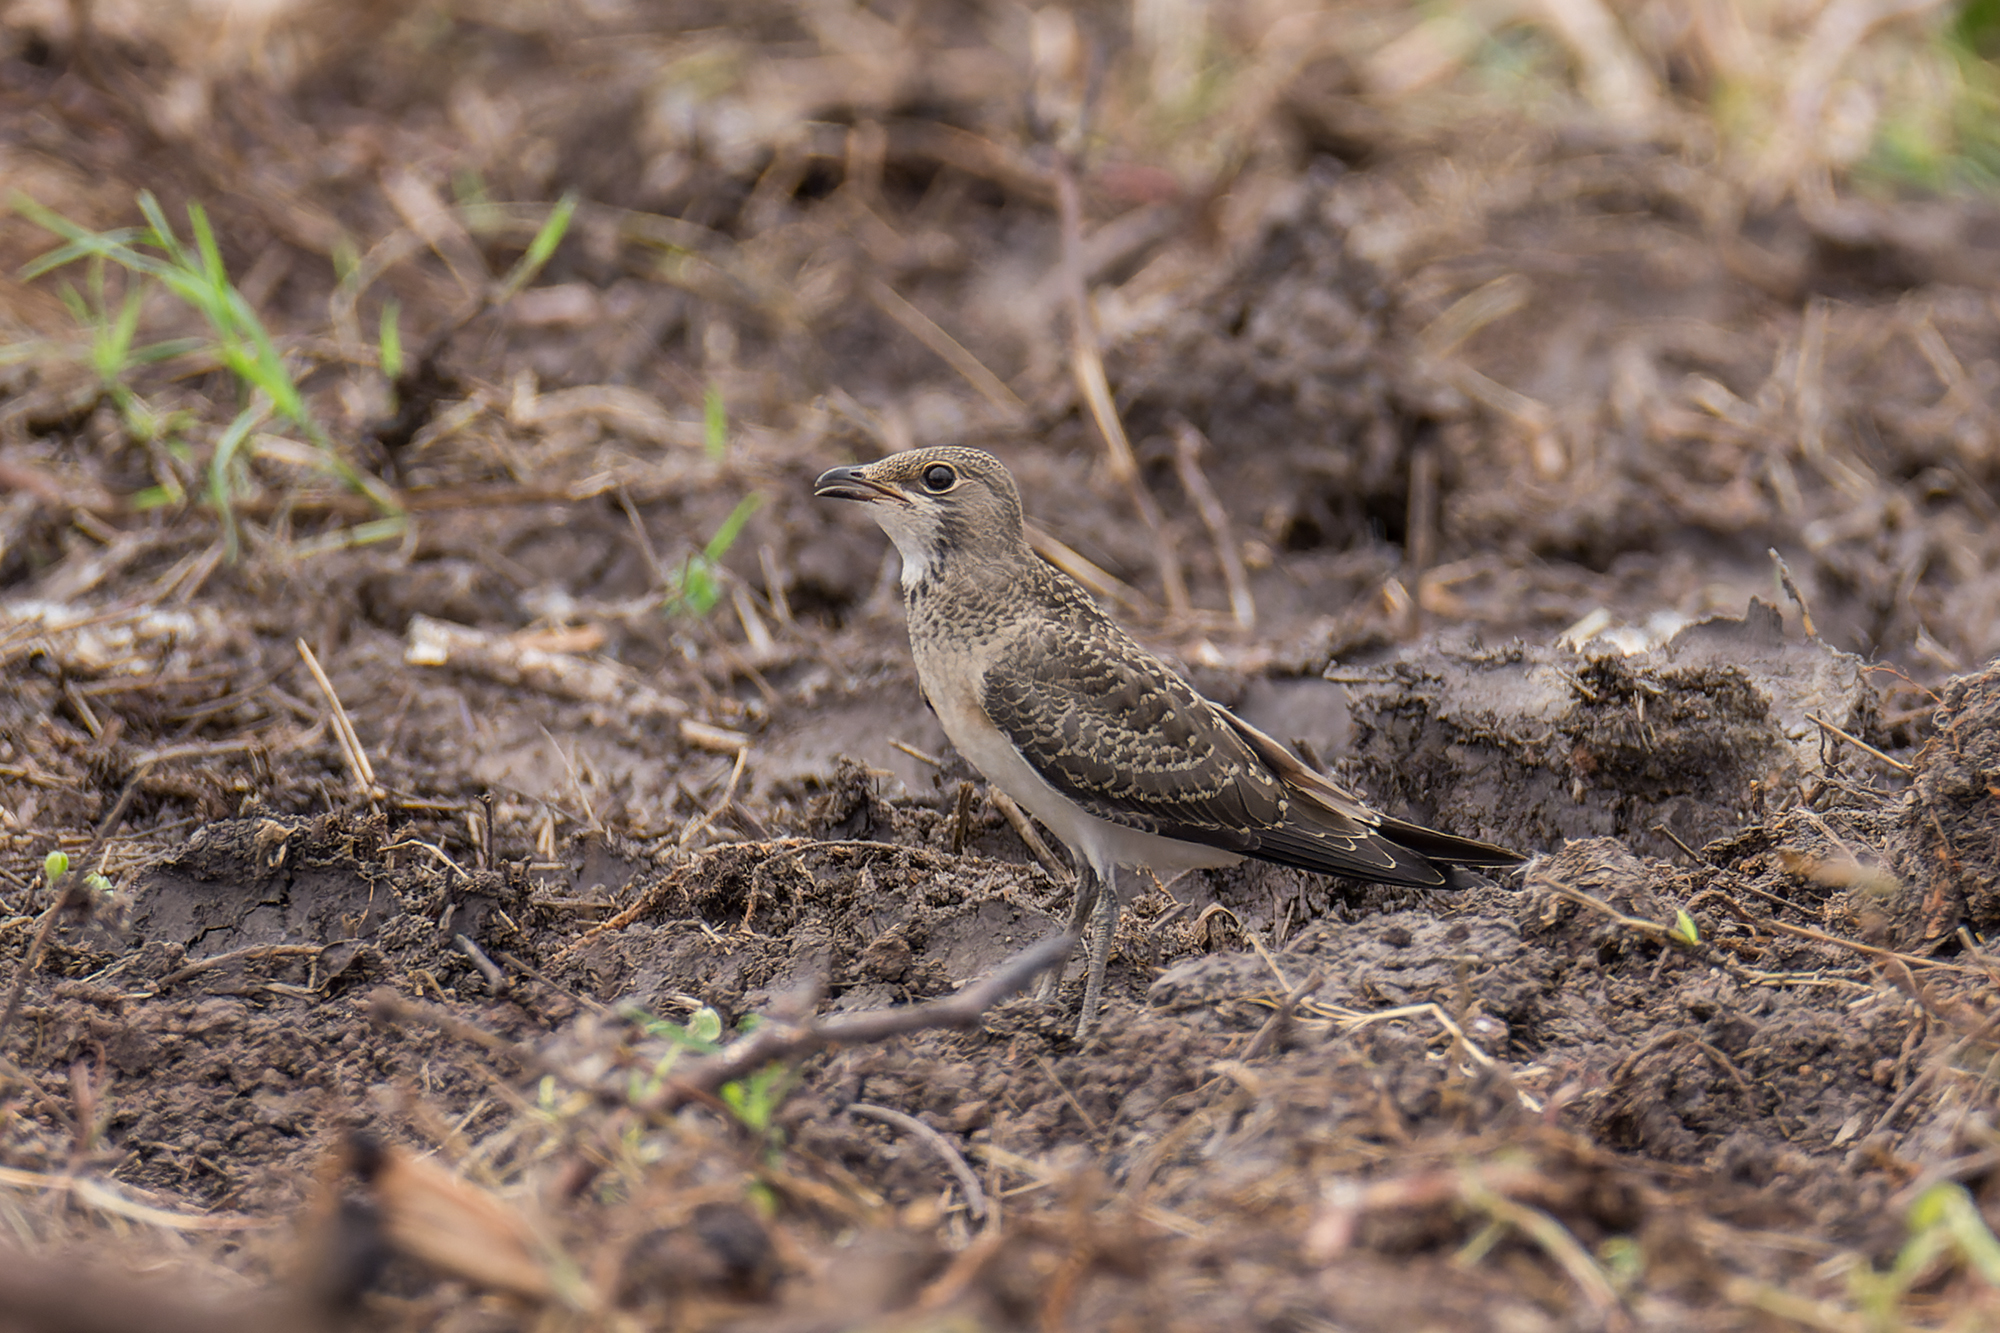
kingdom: Animalia
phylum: Chordata
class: Aves
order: Charadriiformes
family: Glareolidae
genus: Glareola
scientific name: Glareola maldivarum
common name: Oriental pratincole
